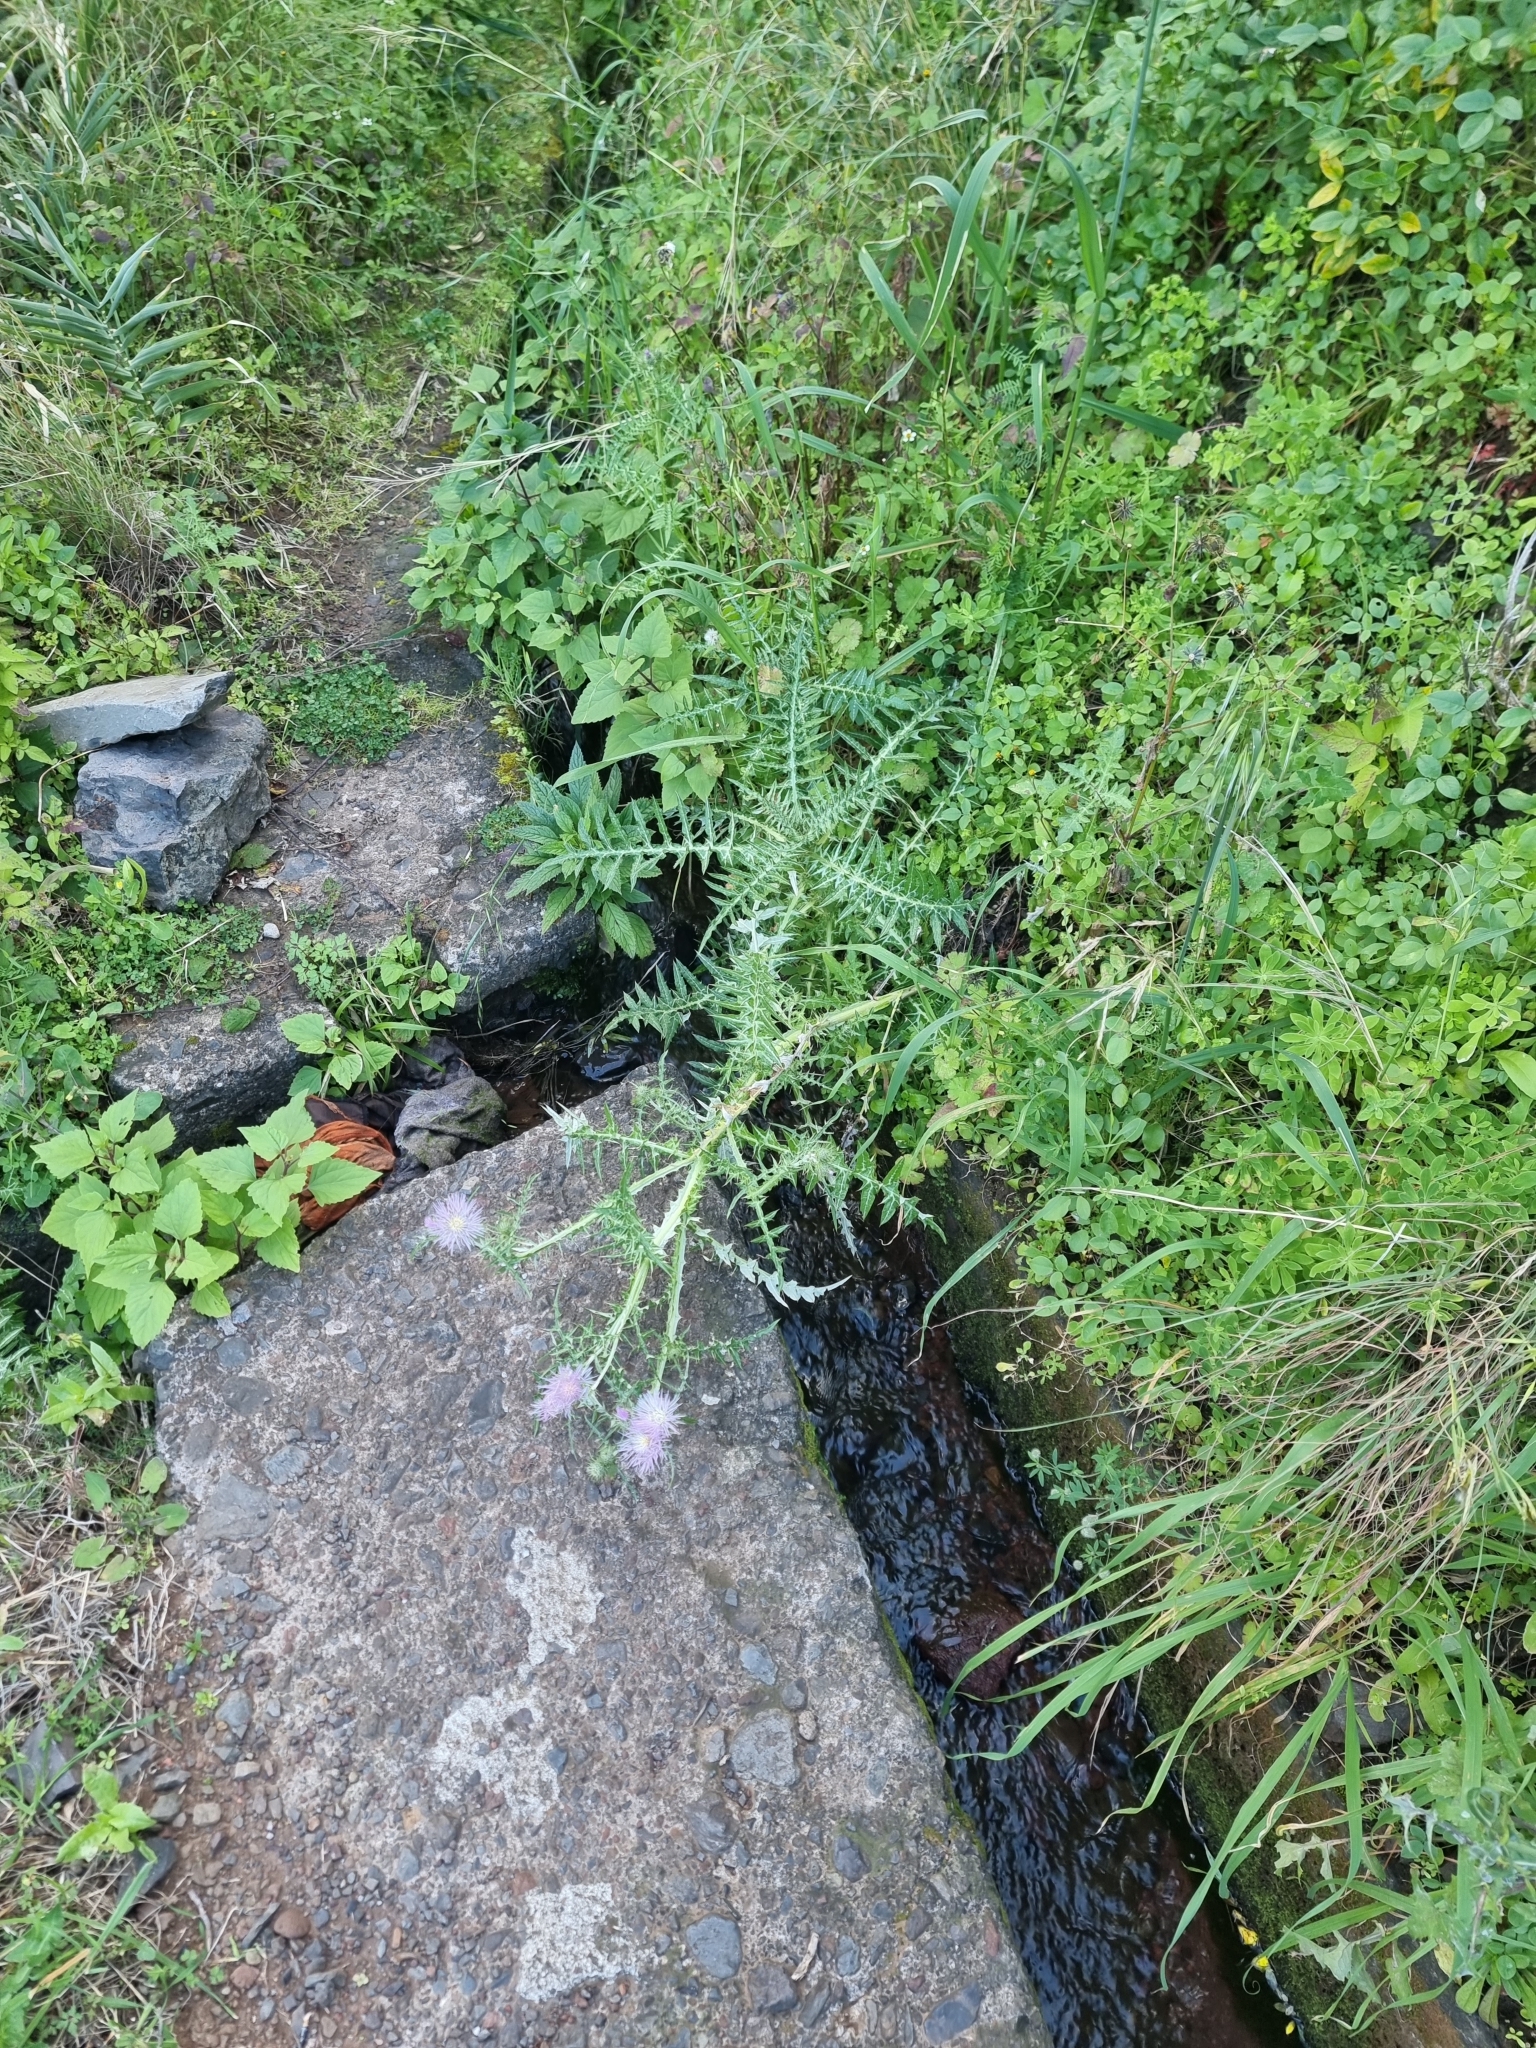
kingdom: Plantae
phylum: Tracheophyta
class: Magnoliopsida
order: Asterales
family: Asteraceae
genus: Galactites
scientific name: Galactites tomentosa
